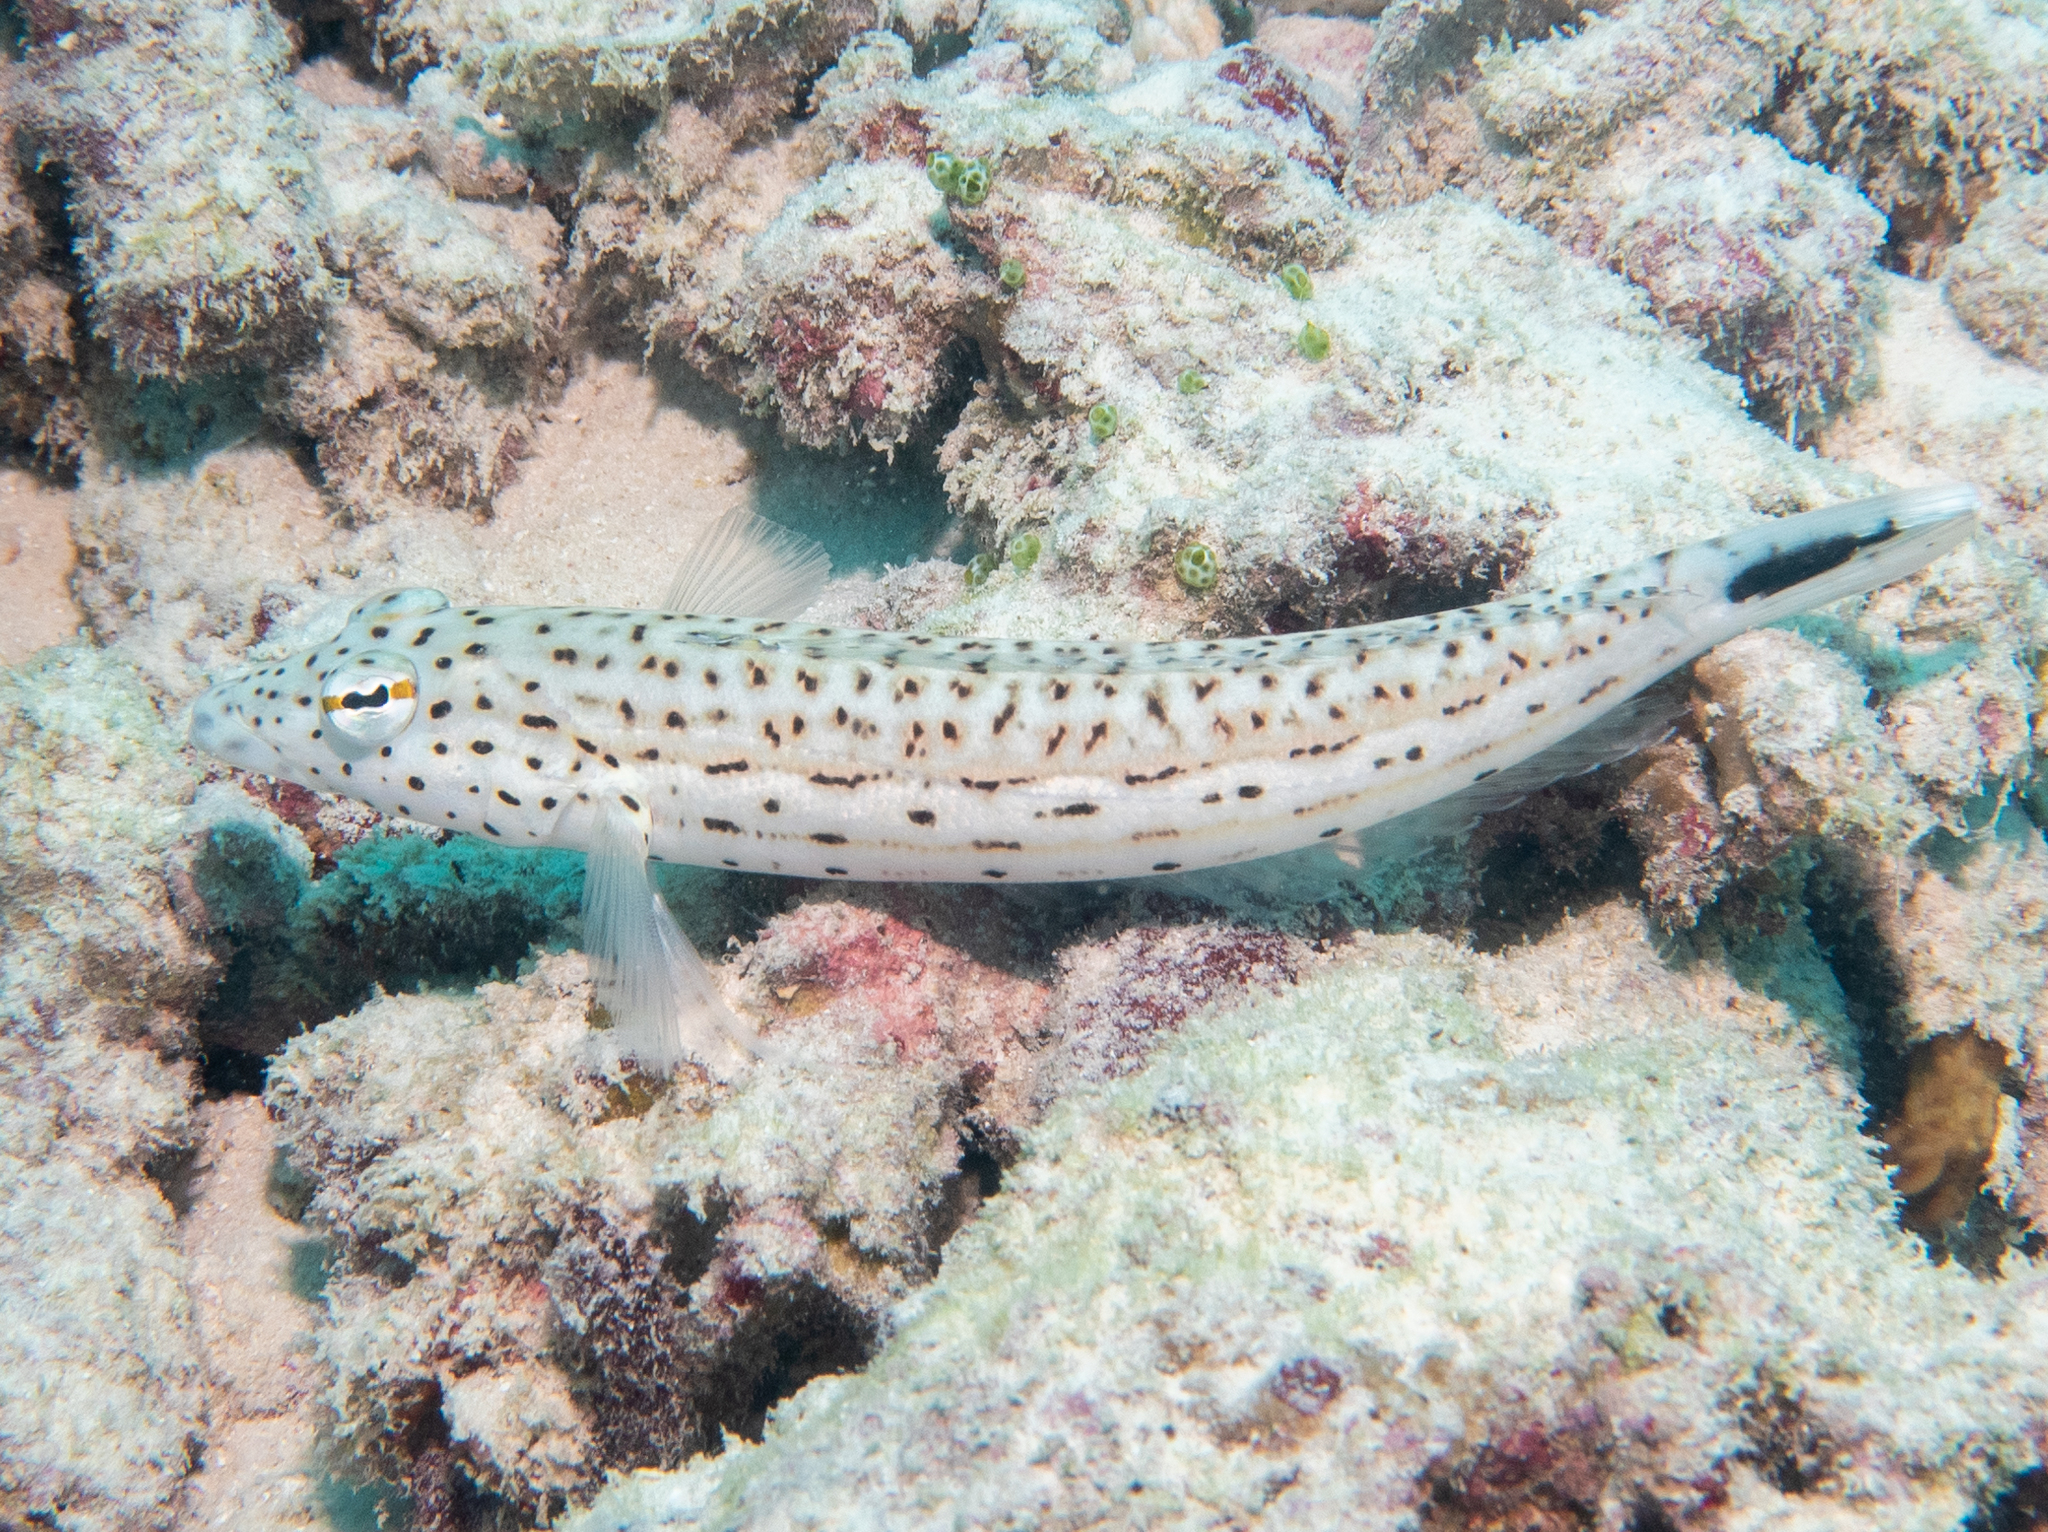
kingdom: Animalia
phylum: Chordata
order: Perciformes
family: Pinguipedidae
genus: Parapercis
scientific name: Parapercis hexophtalma
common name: Speckled sandperch
